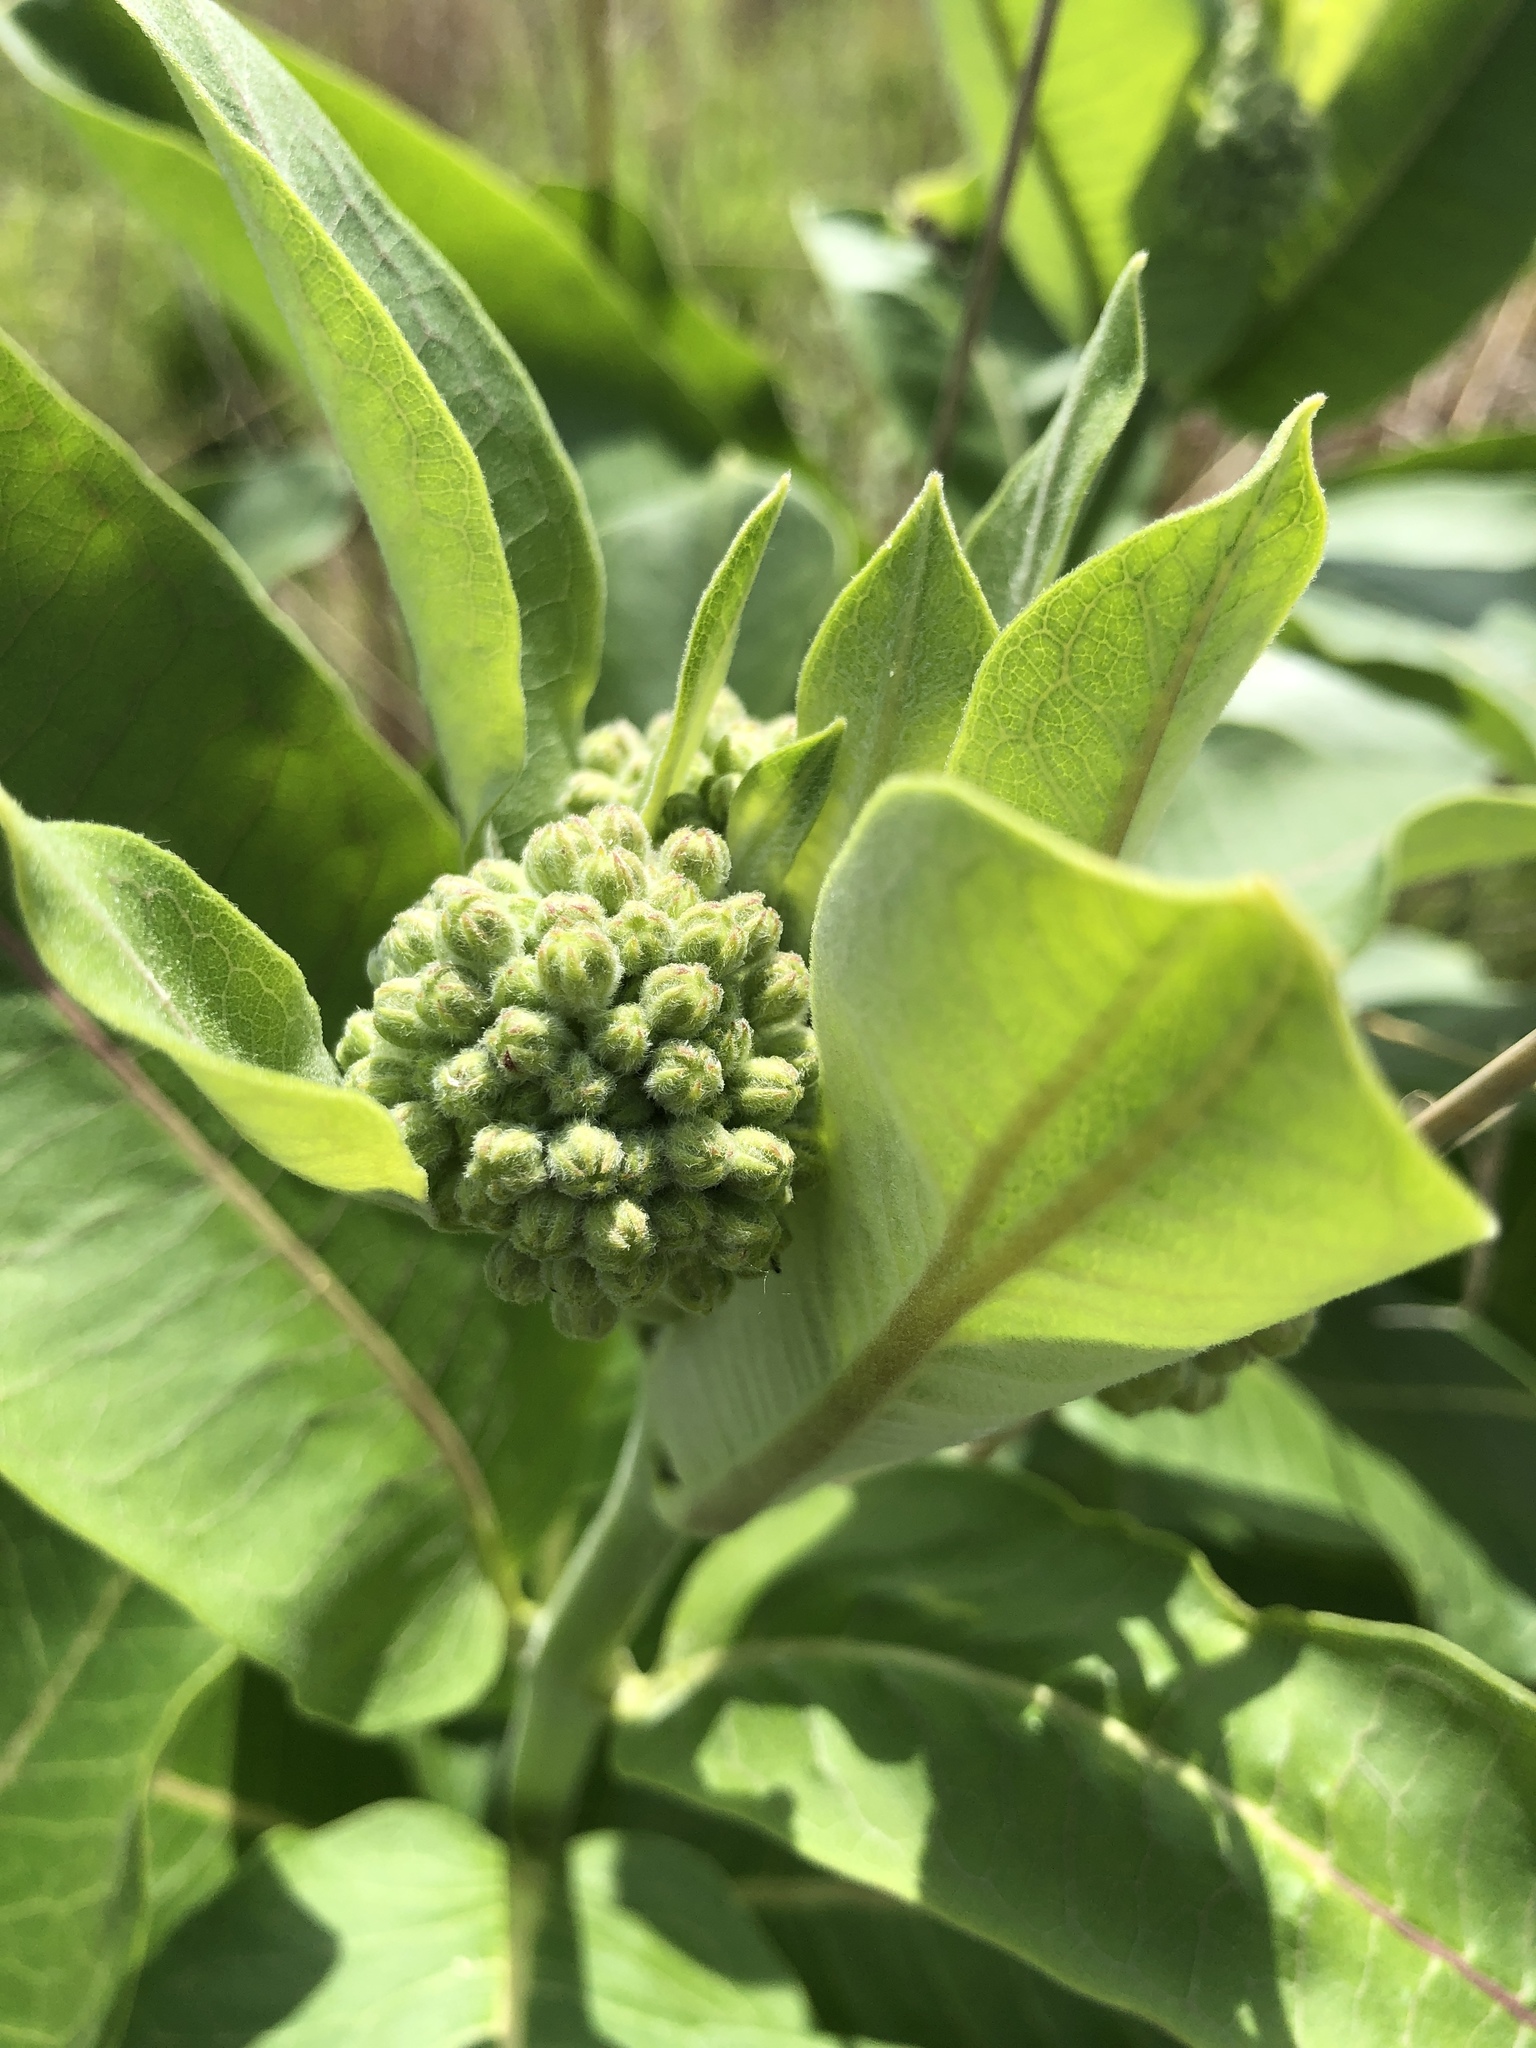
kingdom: Plantae
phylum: Tracheophyta
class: Magnoliopsida
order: Gentianales
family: Apocynaceae
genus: Asclepias
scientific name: Asclepias syriaca
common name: Common milkweed
